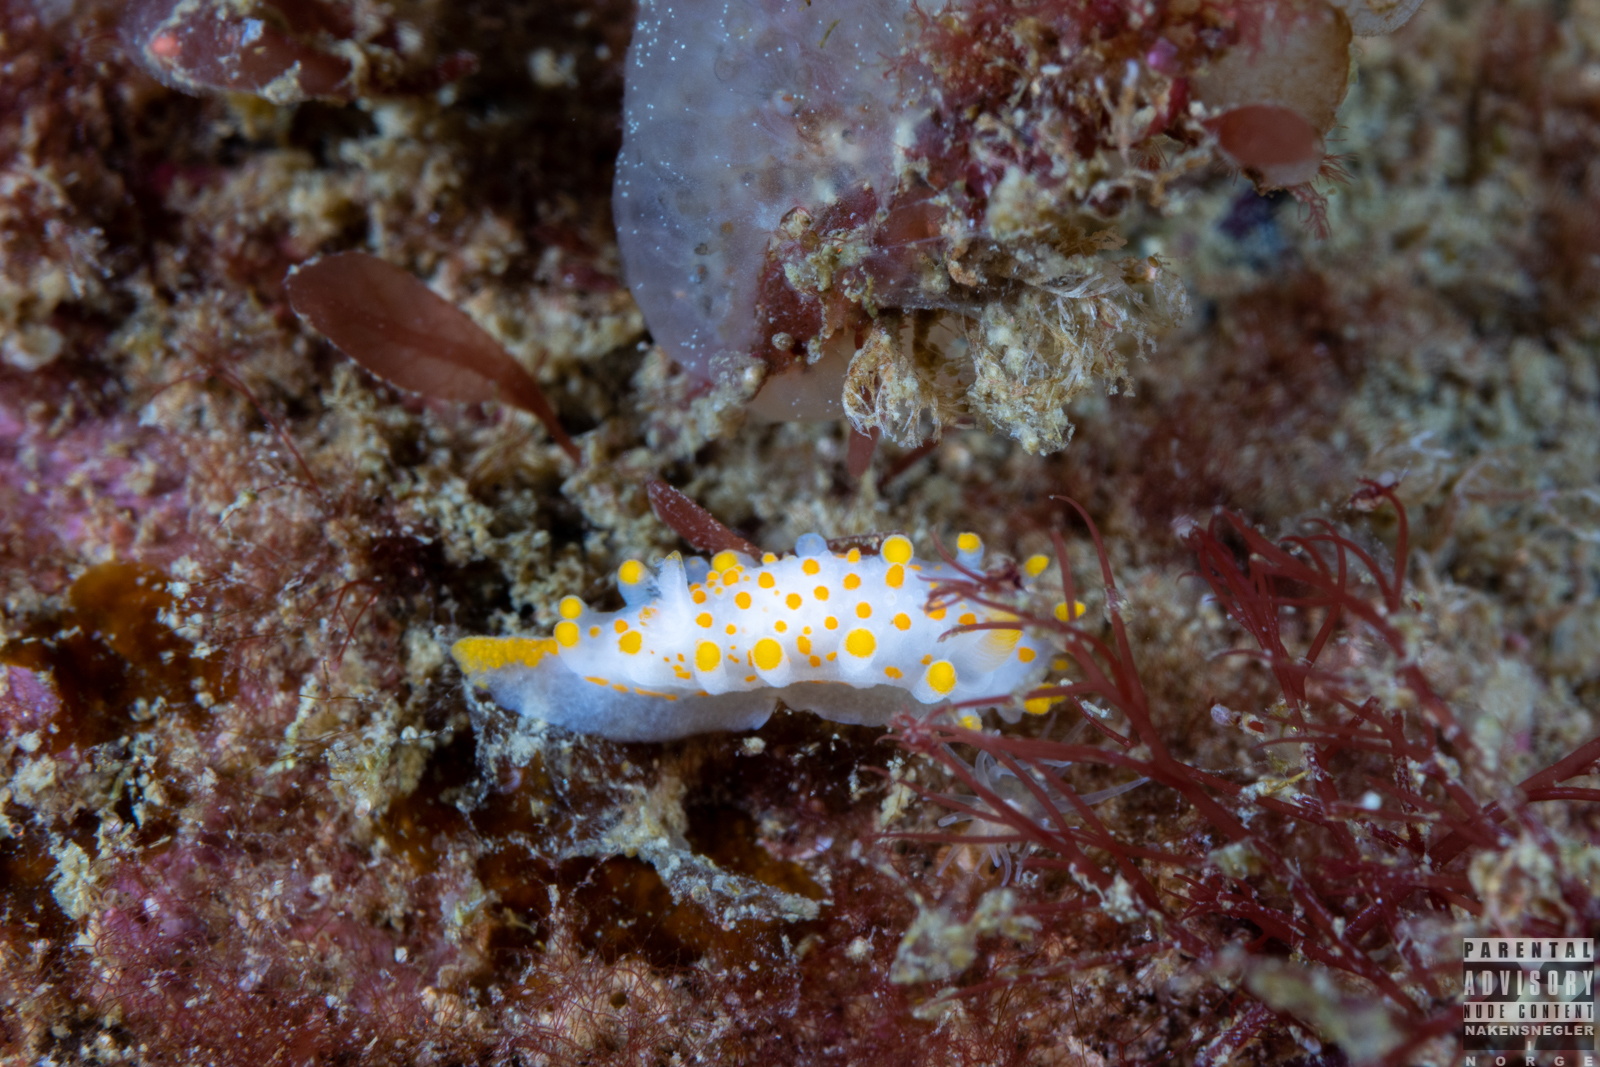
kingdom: Animalia
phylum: Mollusca
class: Gastropoda
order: Nudibranchia
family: Polyceridae
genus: Limacia
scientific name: Limacia clavigera
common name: Orange-clubbed sea slug
